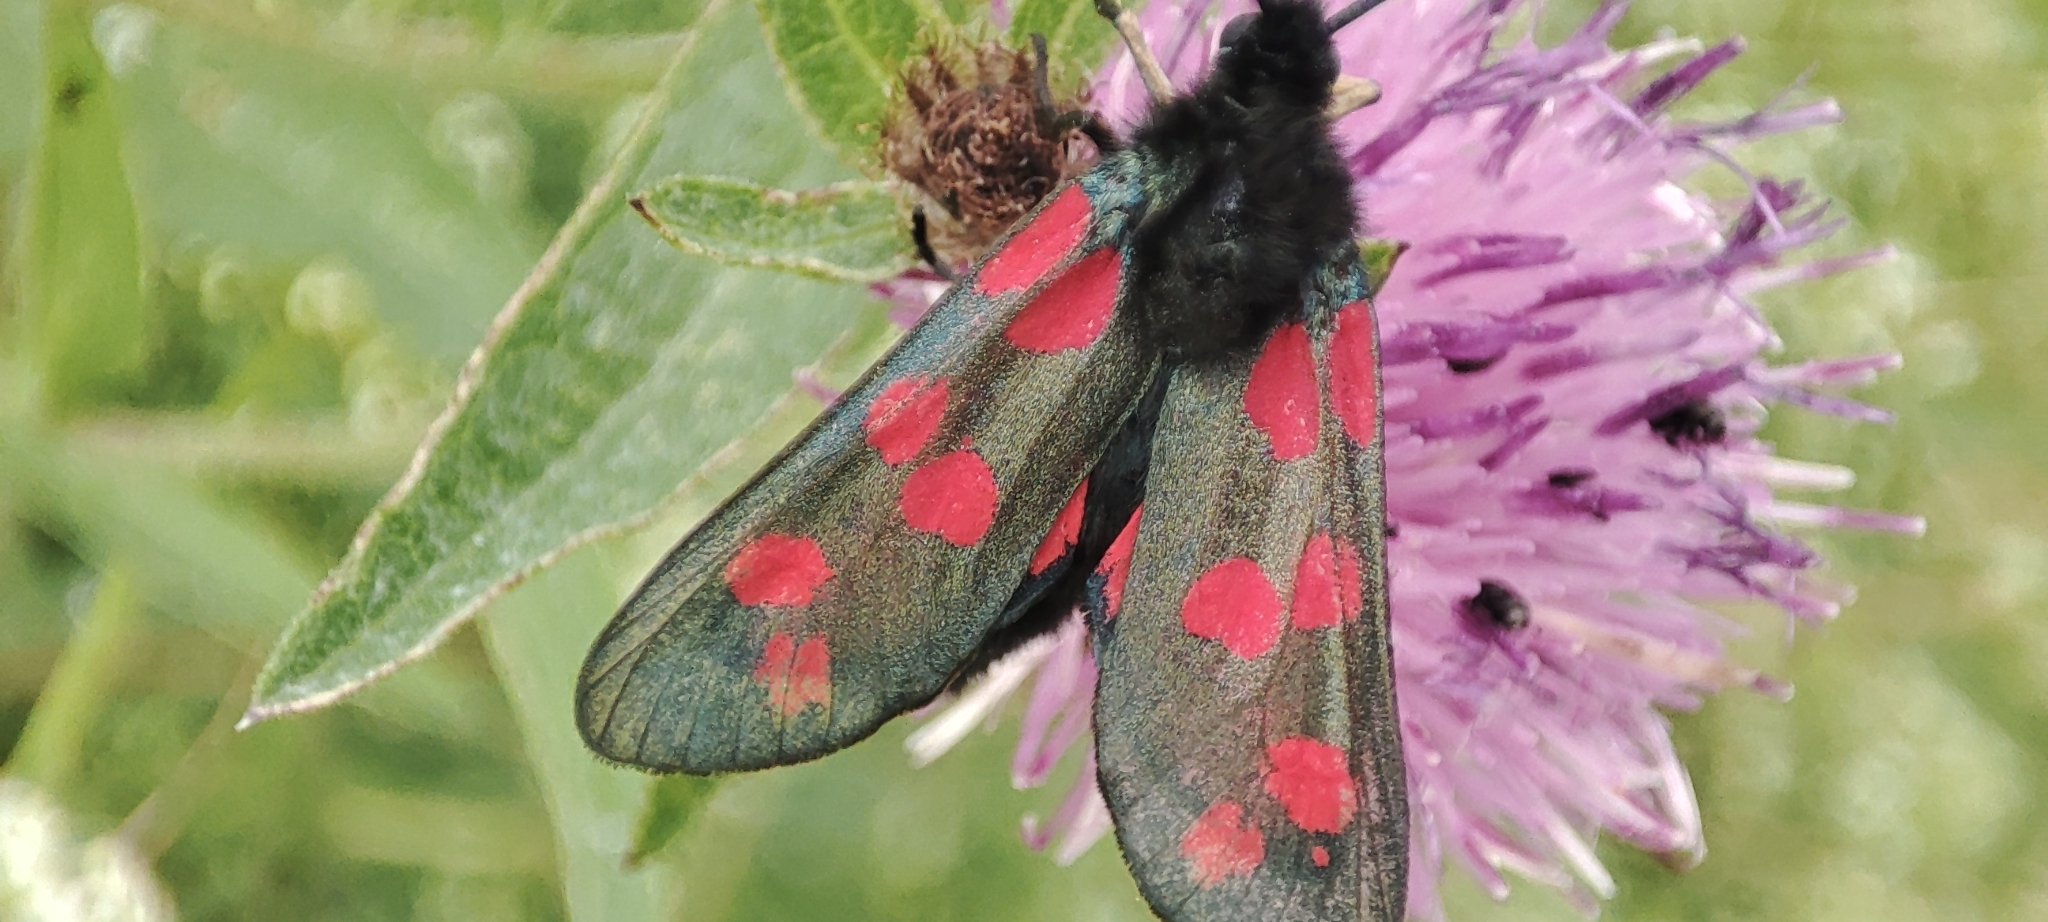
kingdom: Animalia
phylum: Arthropoda
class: Insecta
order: Lepidoptera
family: Zygaenidae
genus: Zygaena
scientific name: Zygaena filipendulae
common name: Six-spot burnet
